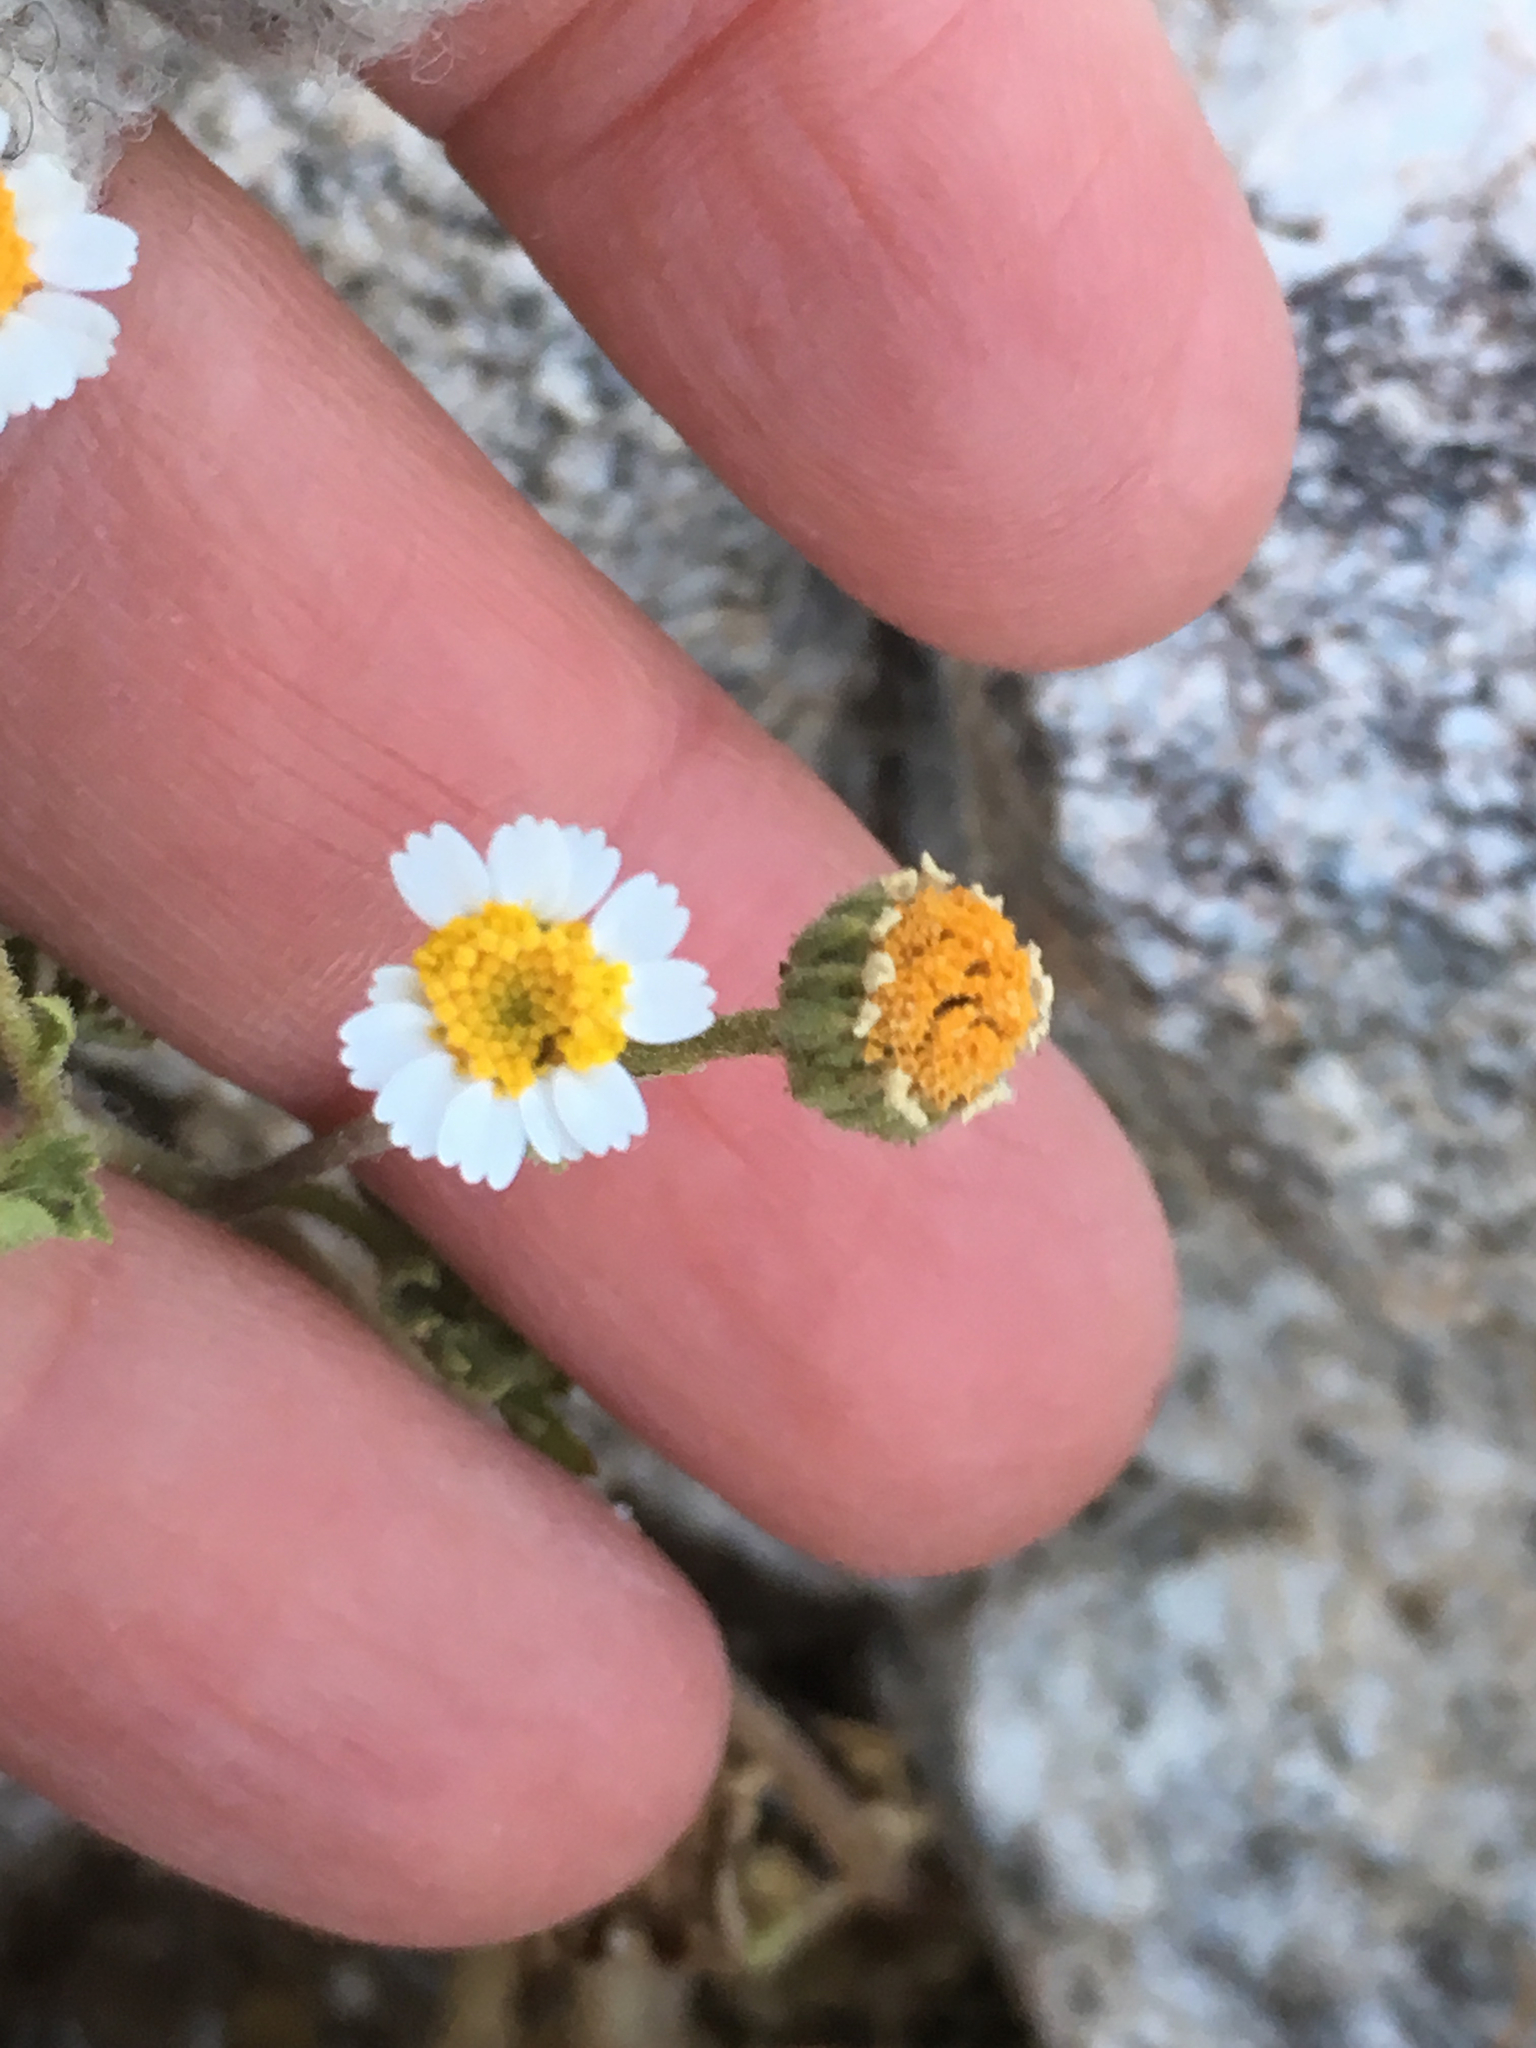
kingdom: Plantae
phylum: Tracheophyta
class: Magnoliopsida
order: Asterales
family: Asteraceae
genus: Laphamia
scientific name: Laphamia emoryi
